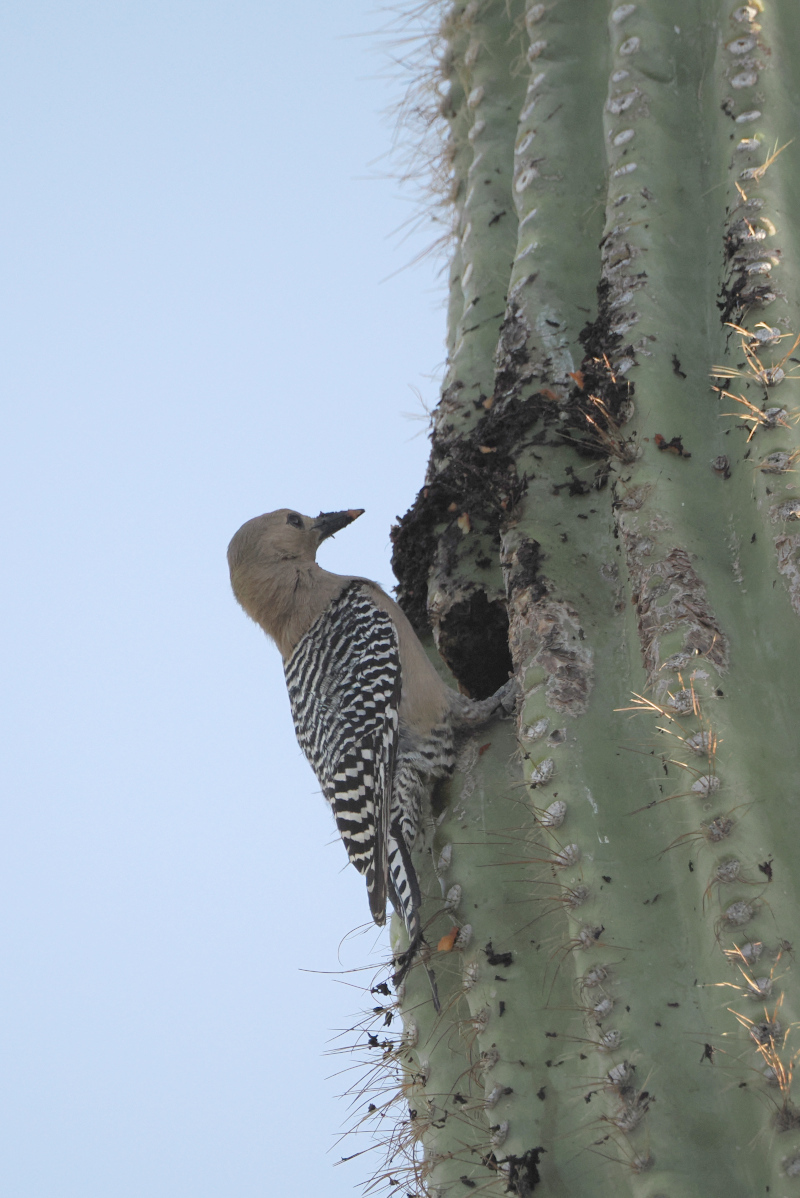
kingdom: Animalia
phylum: Chordata
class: Aves
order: Piciformes
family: Picidae
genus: Melanerpes
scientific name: Melanerpes uropygialis
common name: Gila woodpecker
